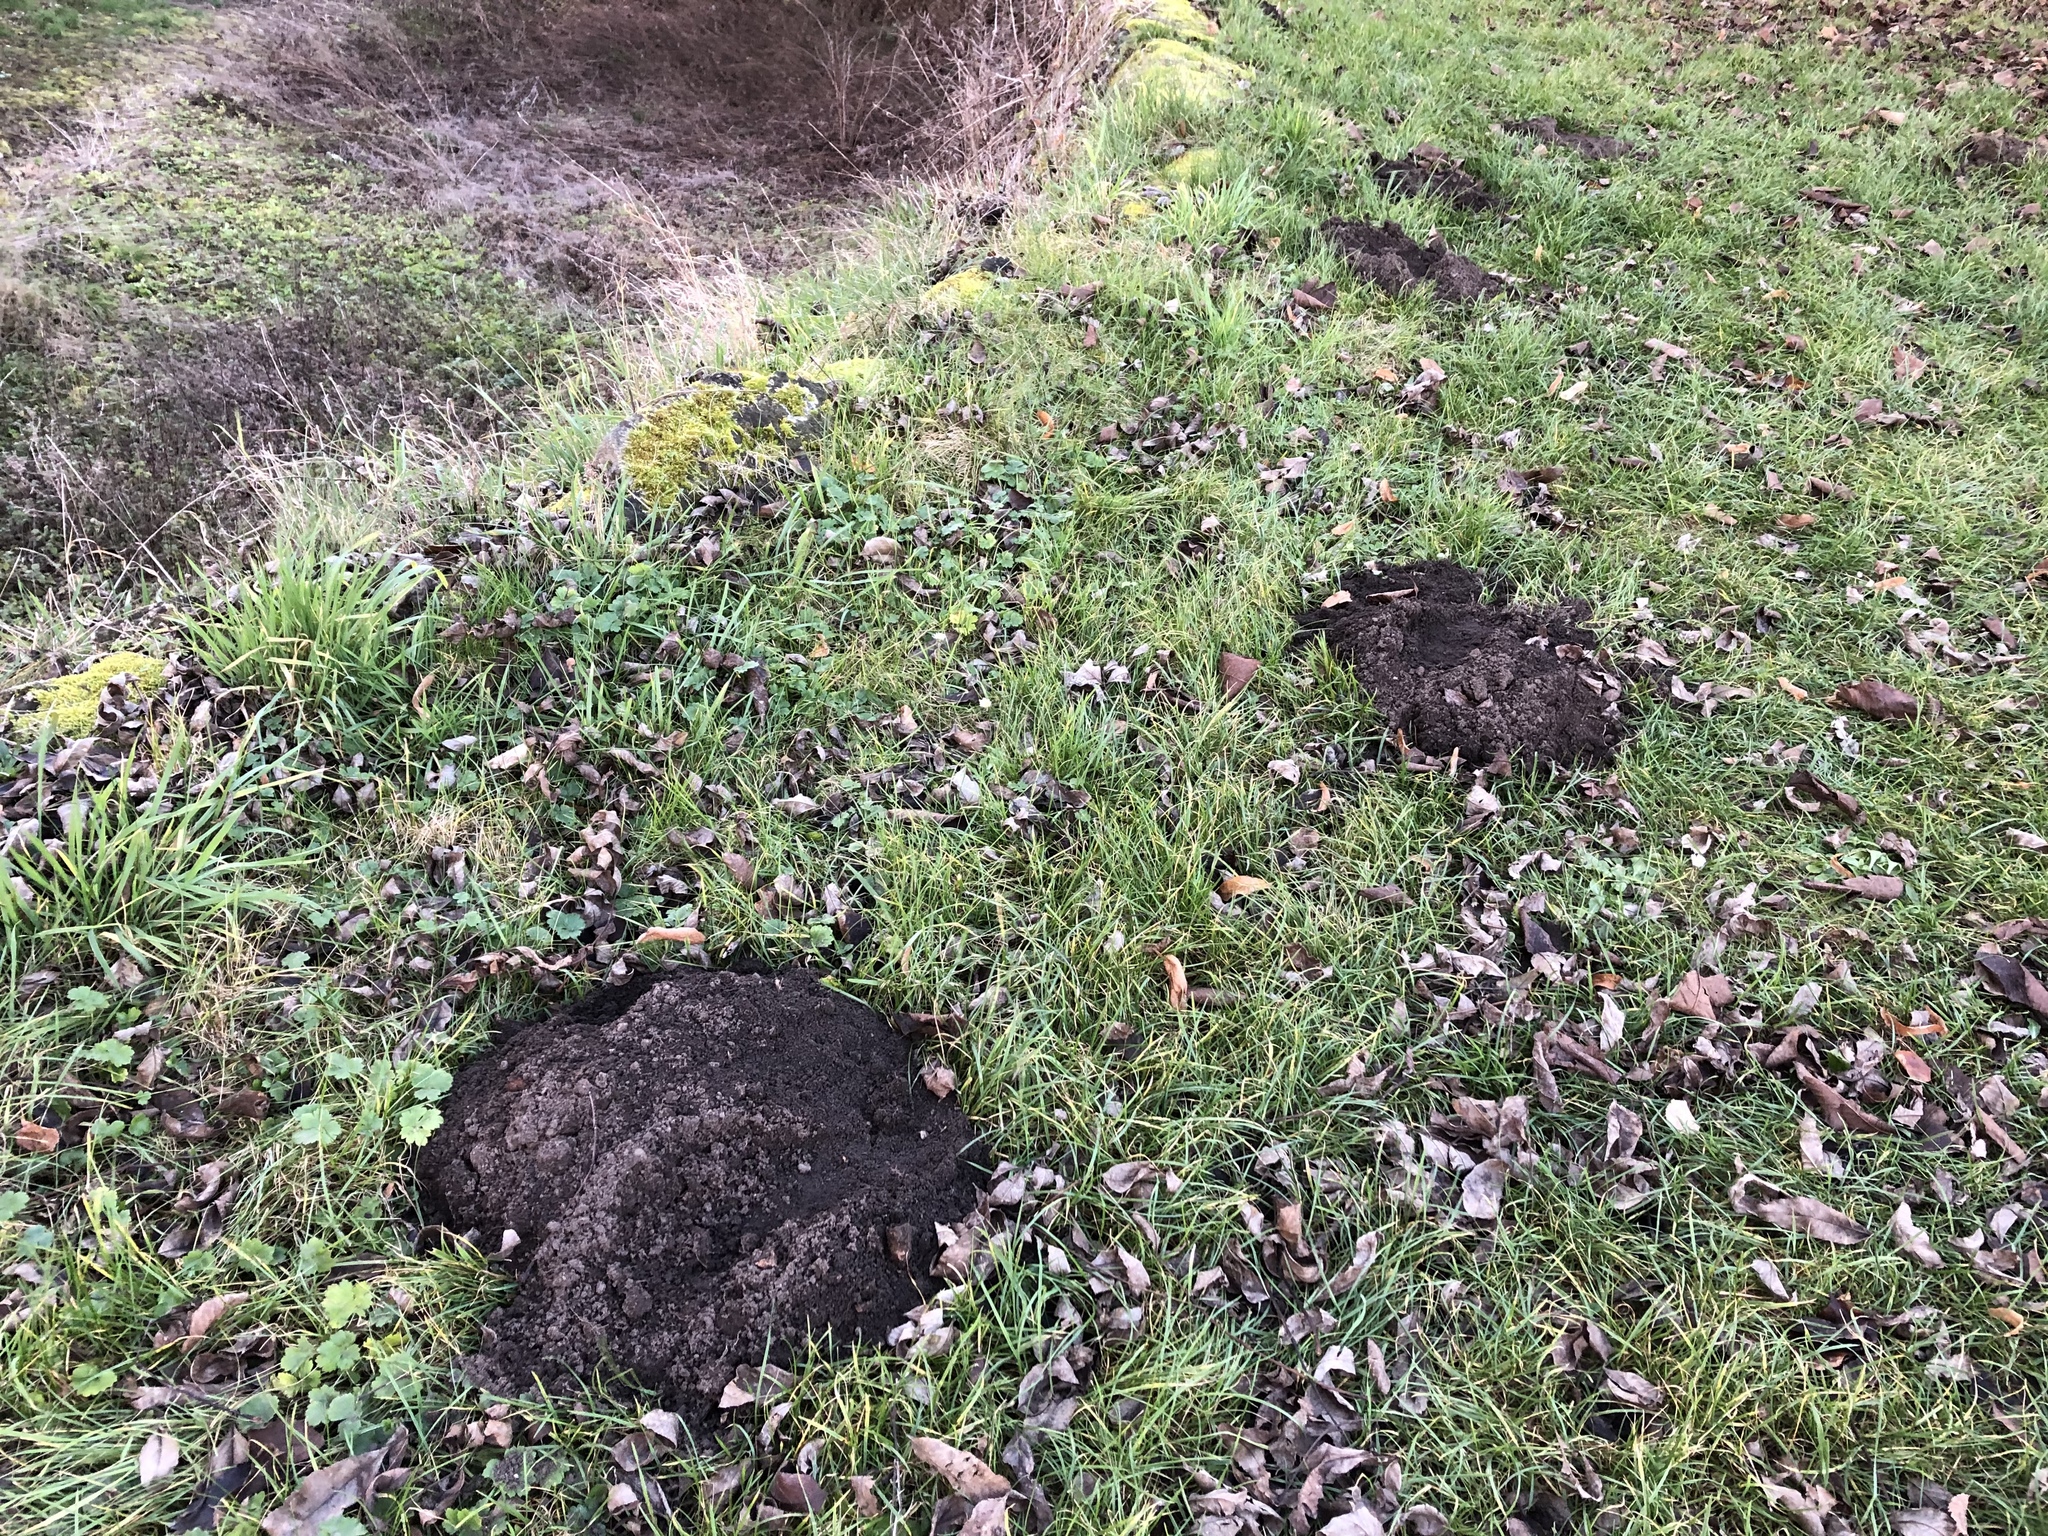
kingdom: Animalia
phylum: Chordata
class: Mammalia
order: Soricomorpha
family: Talpidae
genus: Talpa
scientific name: Talpa europaea
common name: European mole
